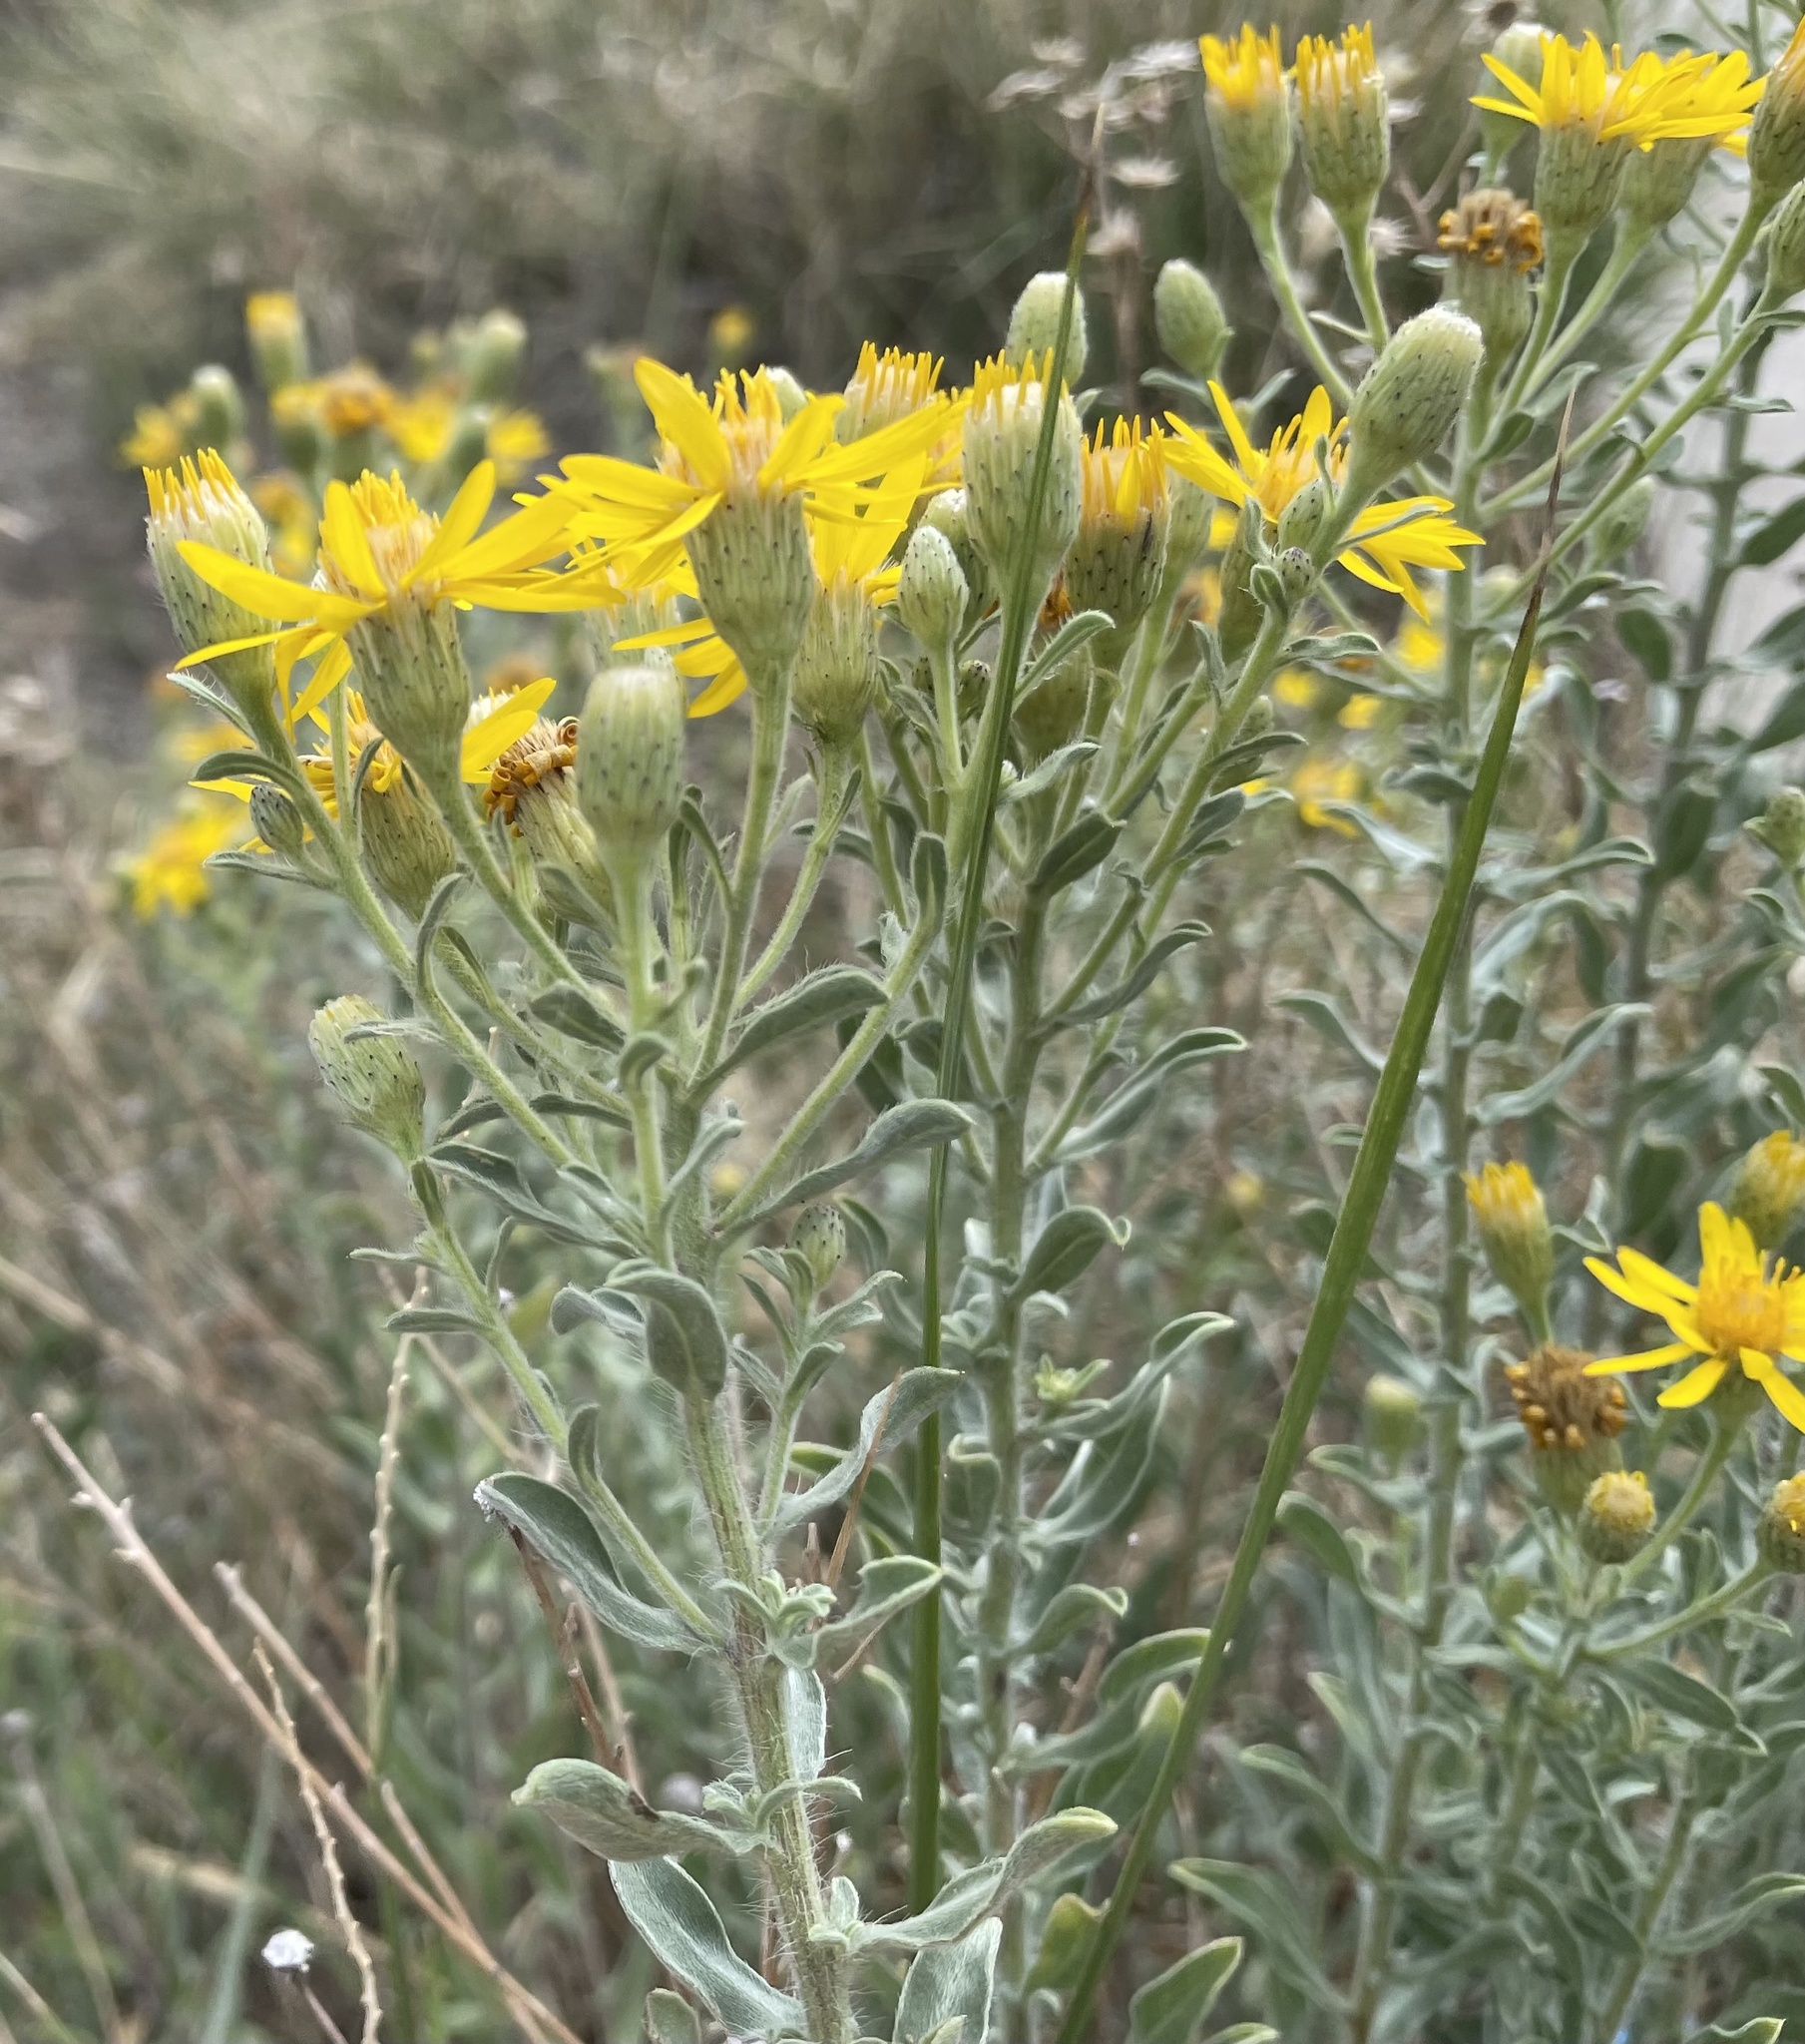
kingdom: Plantae
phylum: Tracheophyta
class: Magnoliopsida
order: Asterales
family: Asteraceae
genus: Heterotheca
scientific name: Heterotheca zionensis
